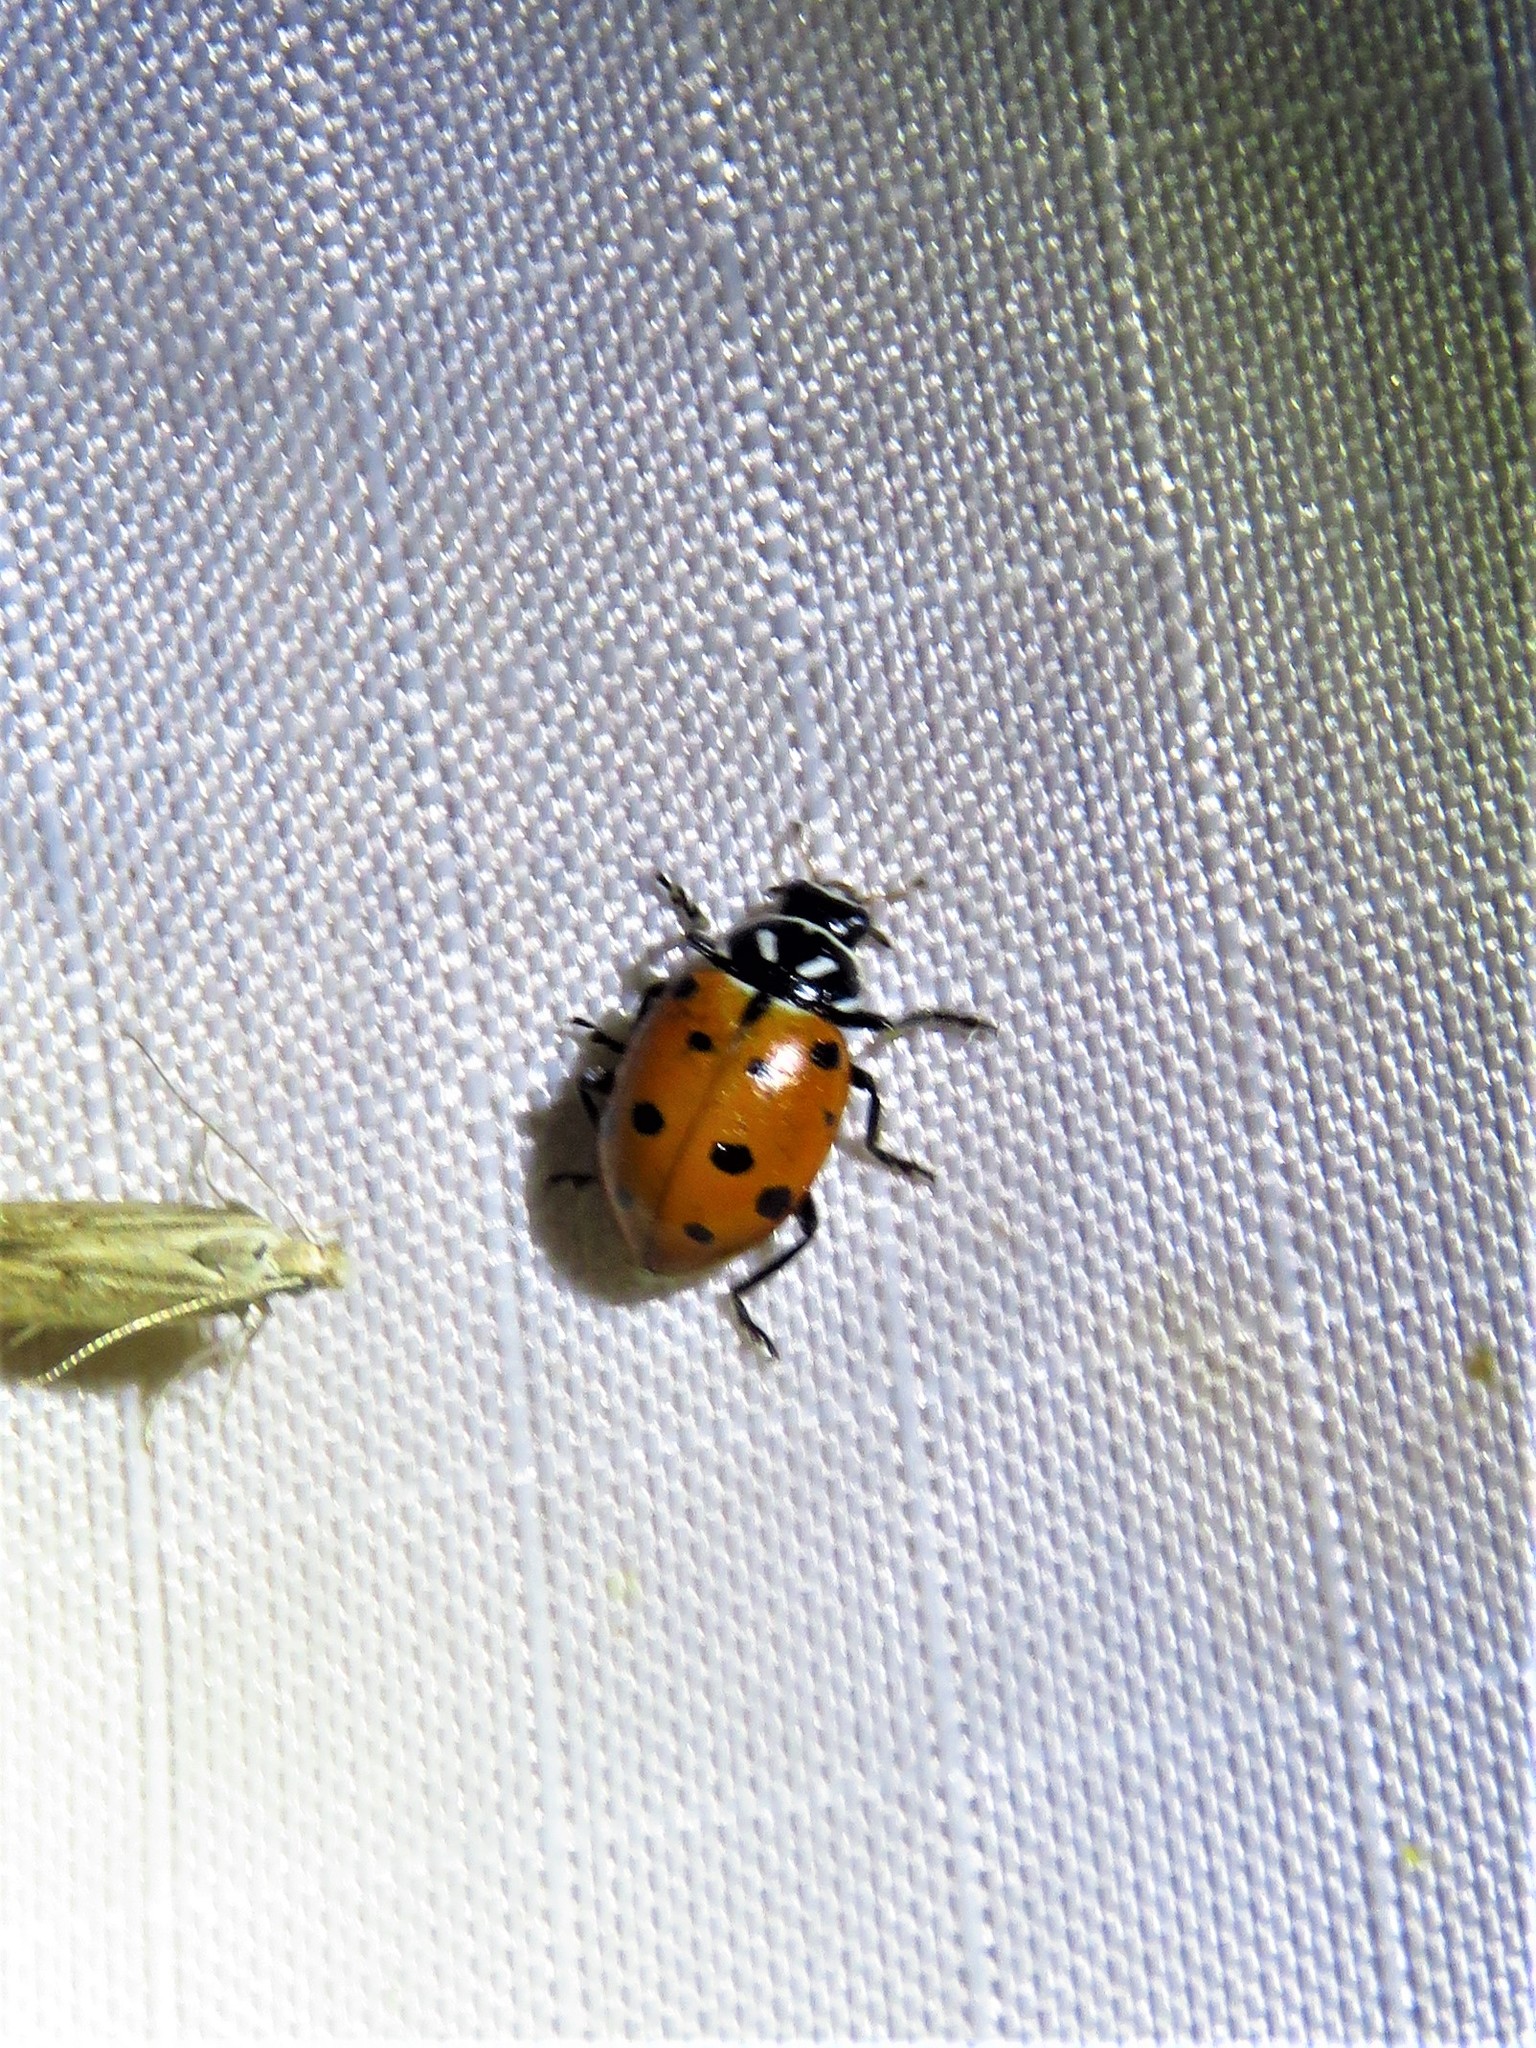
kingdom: Animalia
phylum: Arthropoda
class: Insecta
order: Coleoptera
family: Coccinellidae
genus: Hippodamia
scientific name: Hippodamia convergens
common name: Convergent lady beetle
